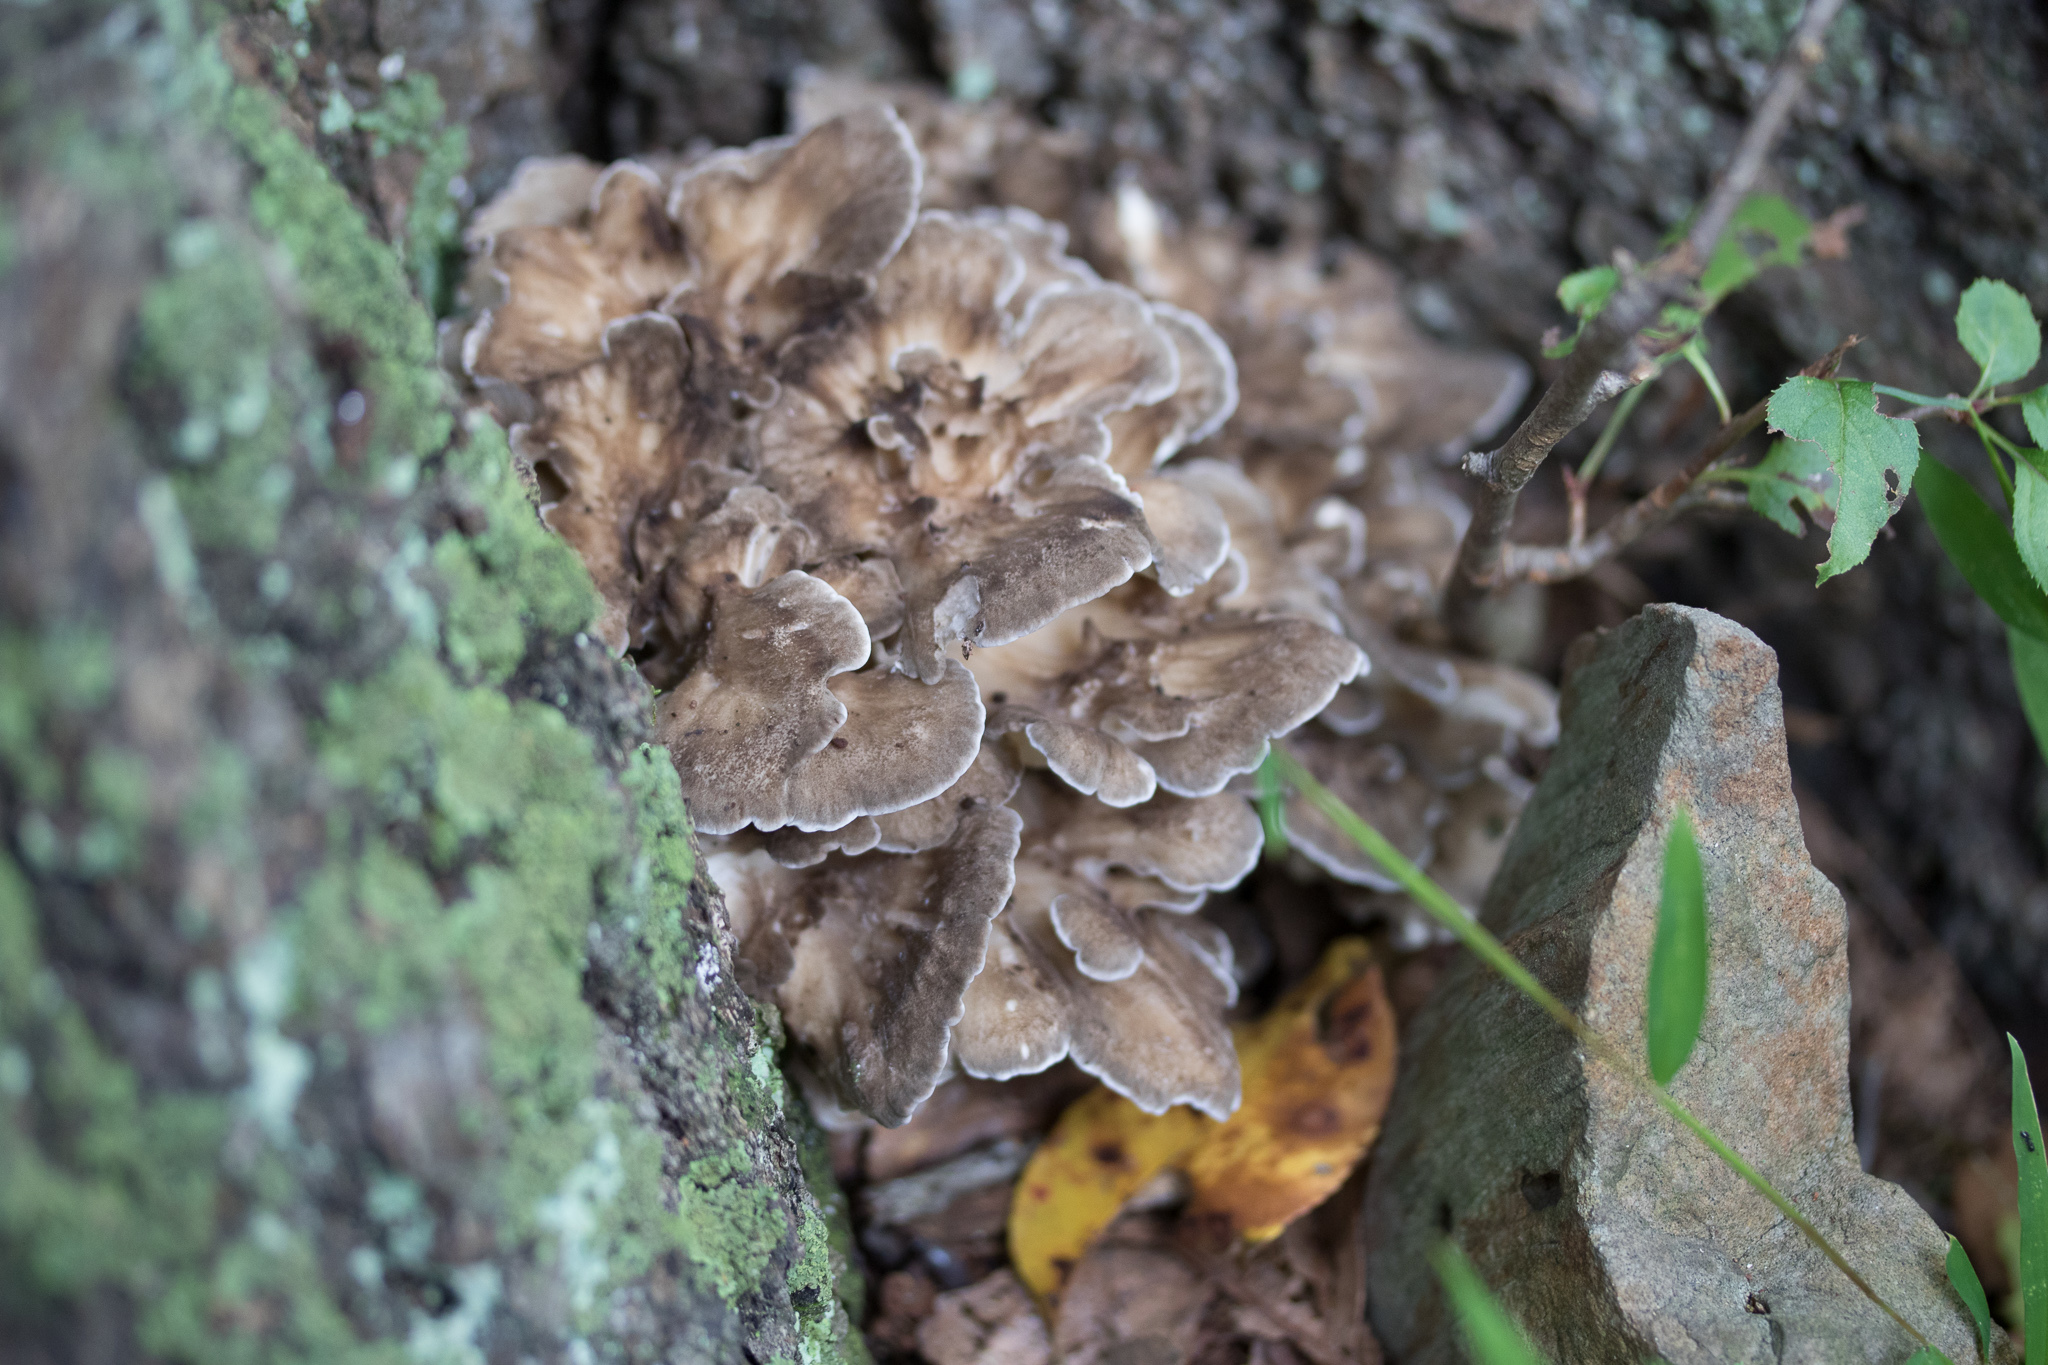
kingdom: Fungi
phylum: Basidiomycota
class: Agaricomycetes
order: Polyporales
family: Grifolaceae
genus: Grifola
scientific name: Grifola frondosa
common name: Hen of the woods
